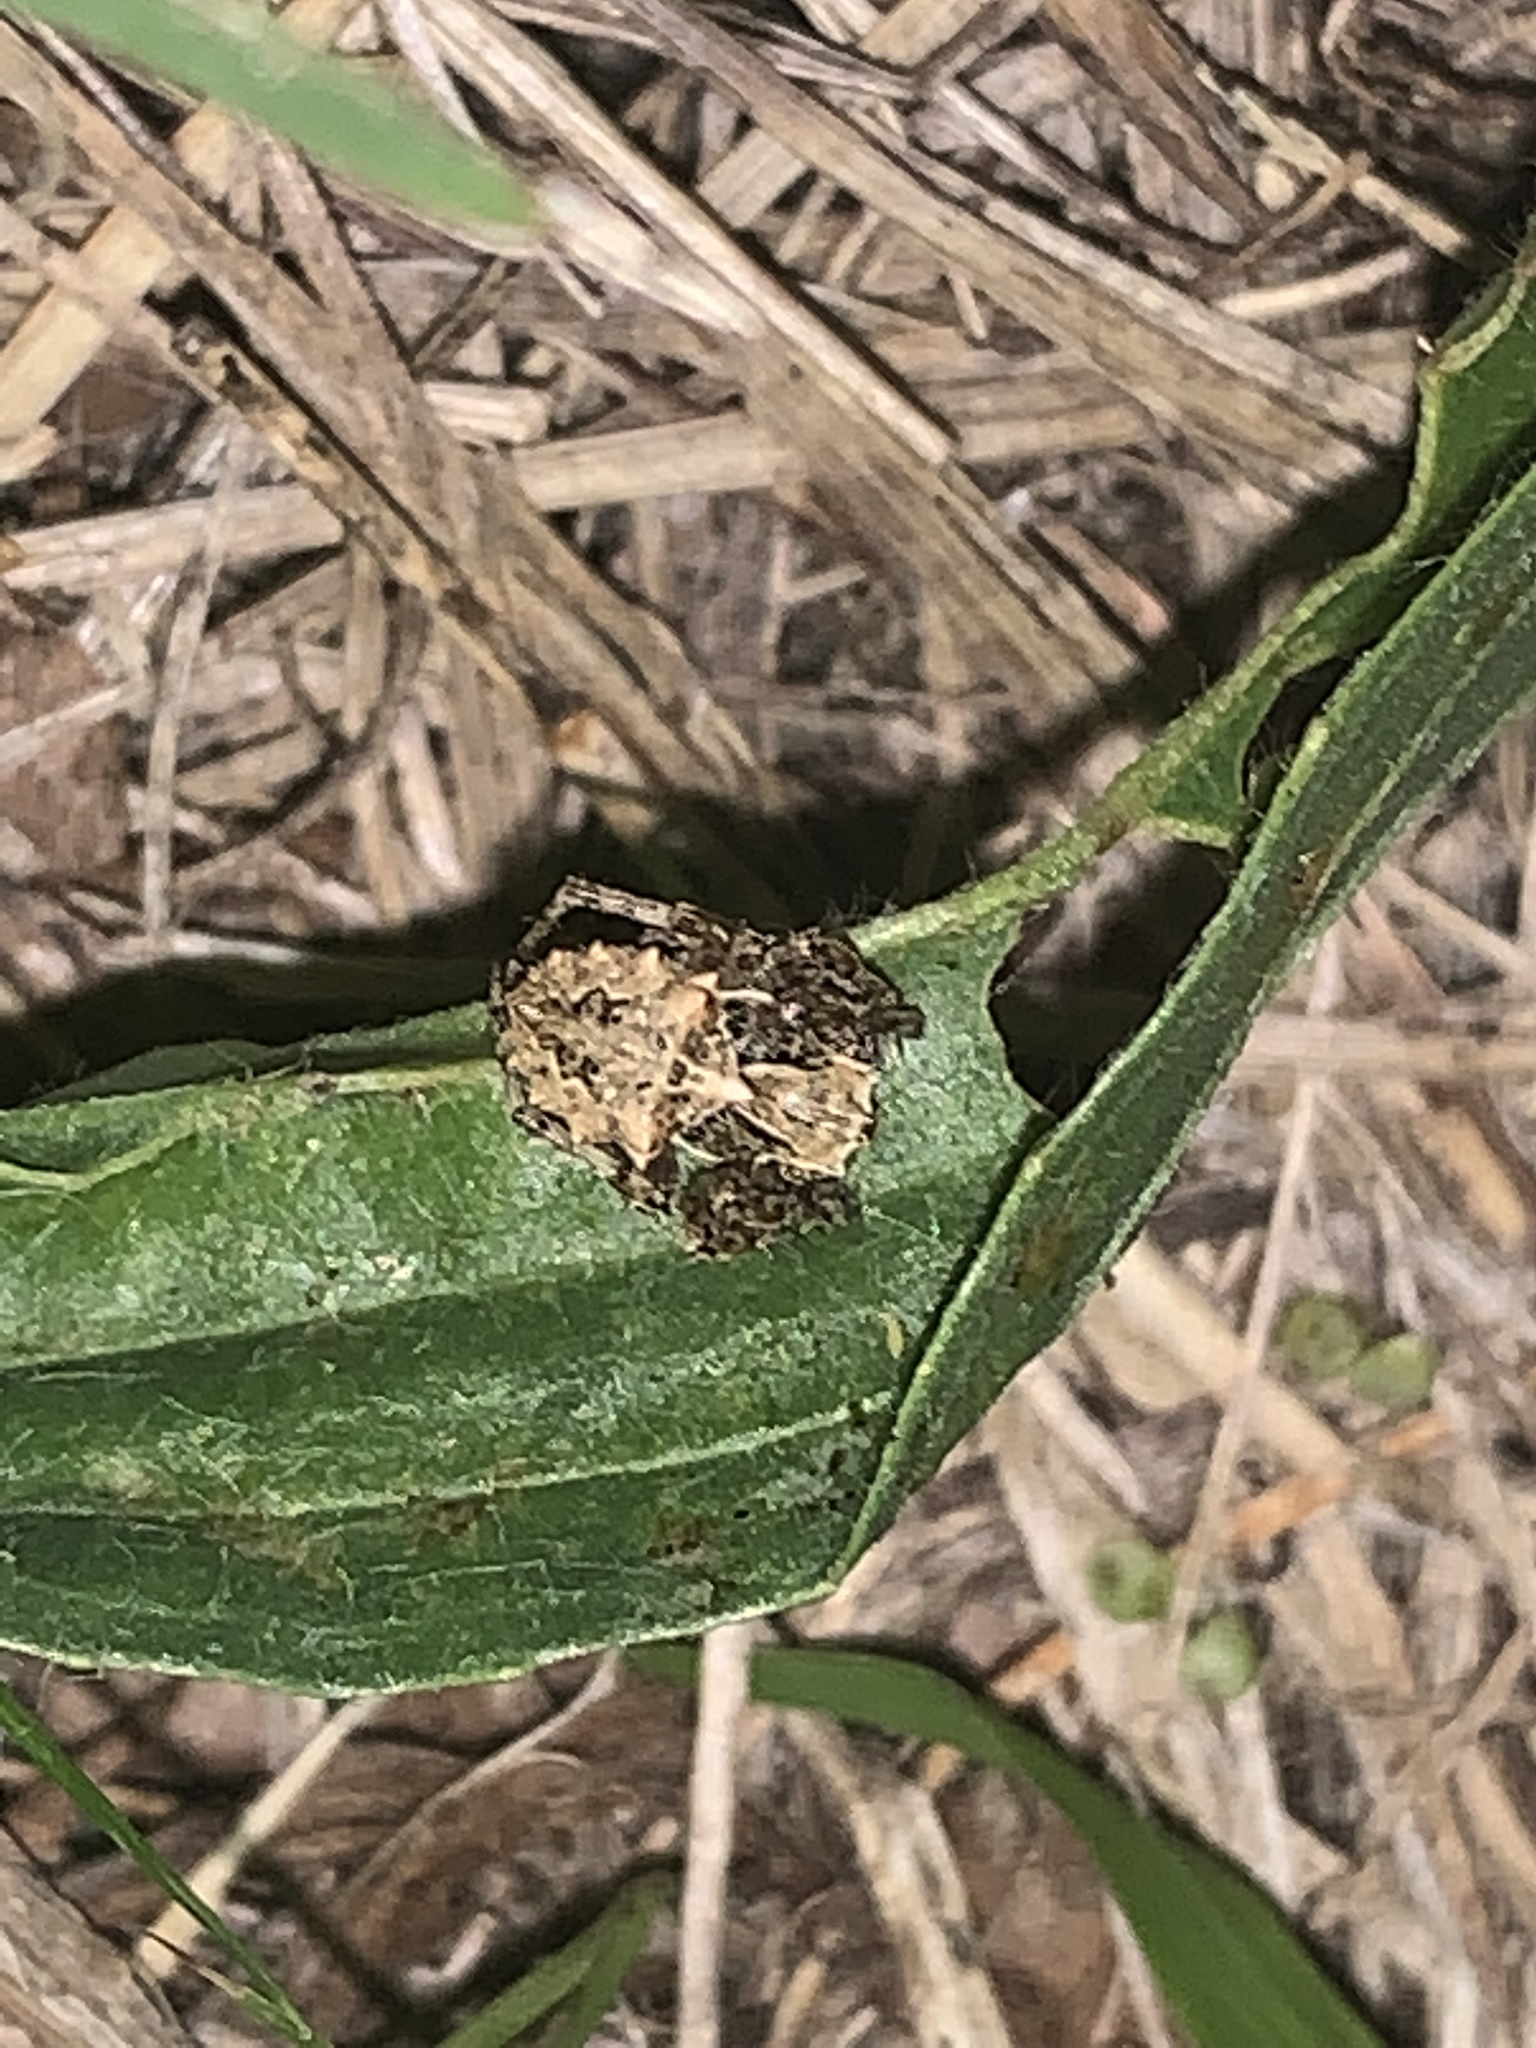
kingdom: Animalia
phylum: Arthropoda
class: Arachnida
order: Araneae
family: Araneidae
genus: Acanthepeira
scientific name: Acanthepeira stellata
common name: Starbellied orbweaver
